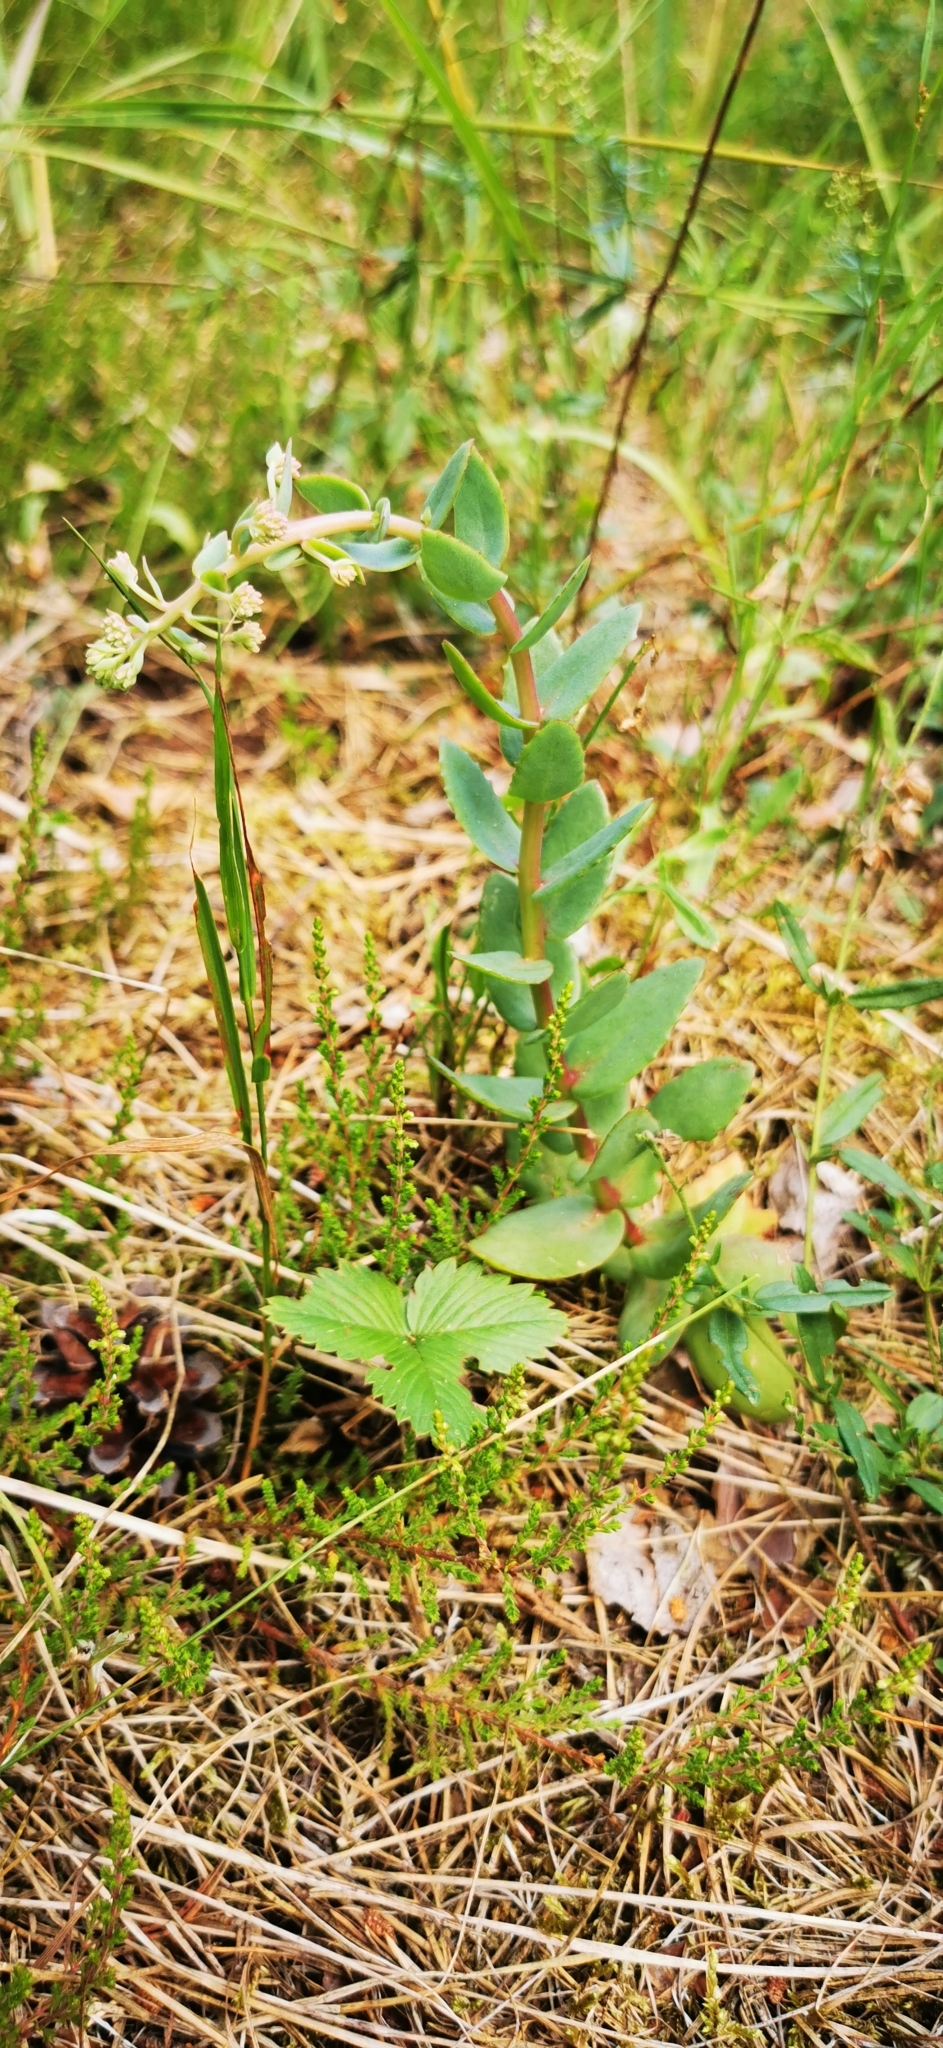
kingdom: Plantae
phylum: Tracheophyta
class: Magnoliopsida
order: Saxifragales
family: Crassulaceae
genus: Hylotelephium
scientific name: Hylotelephium maximum
